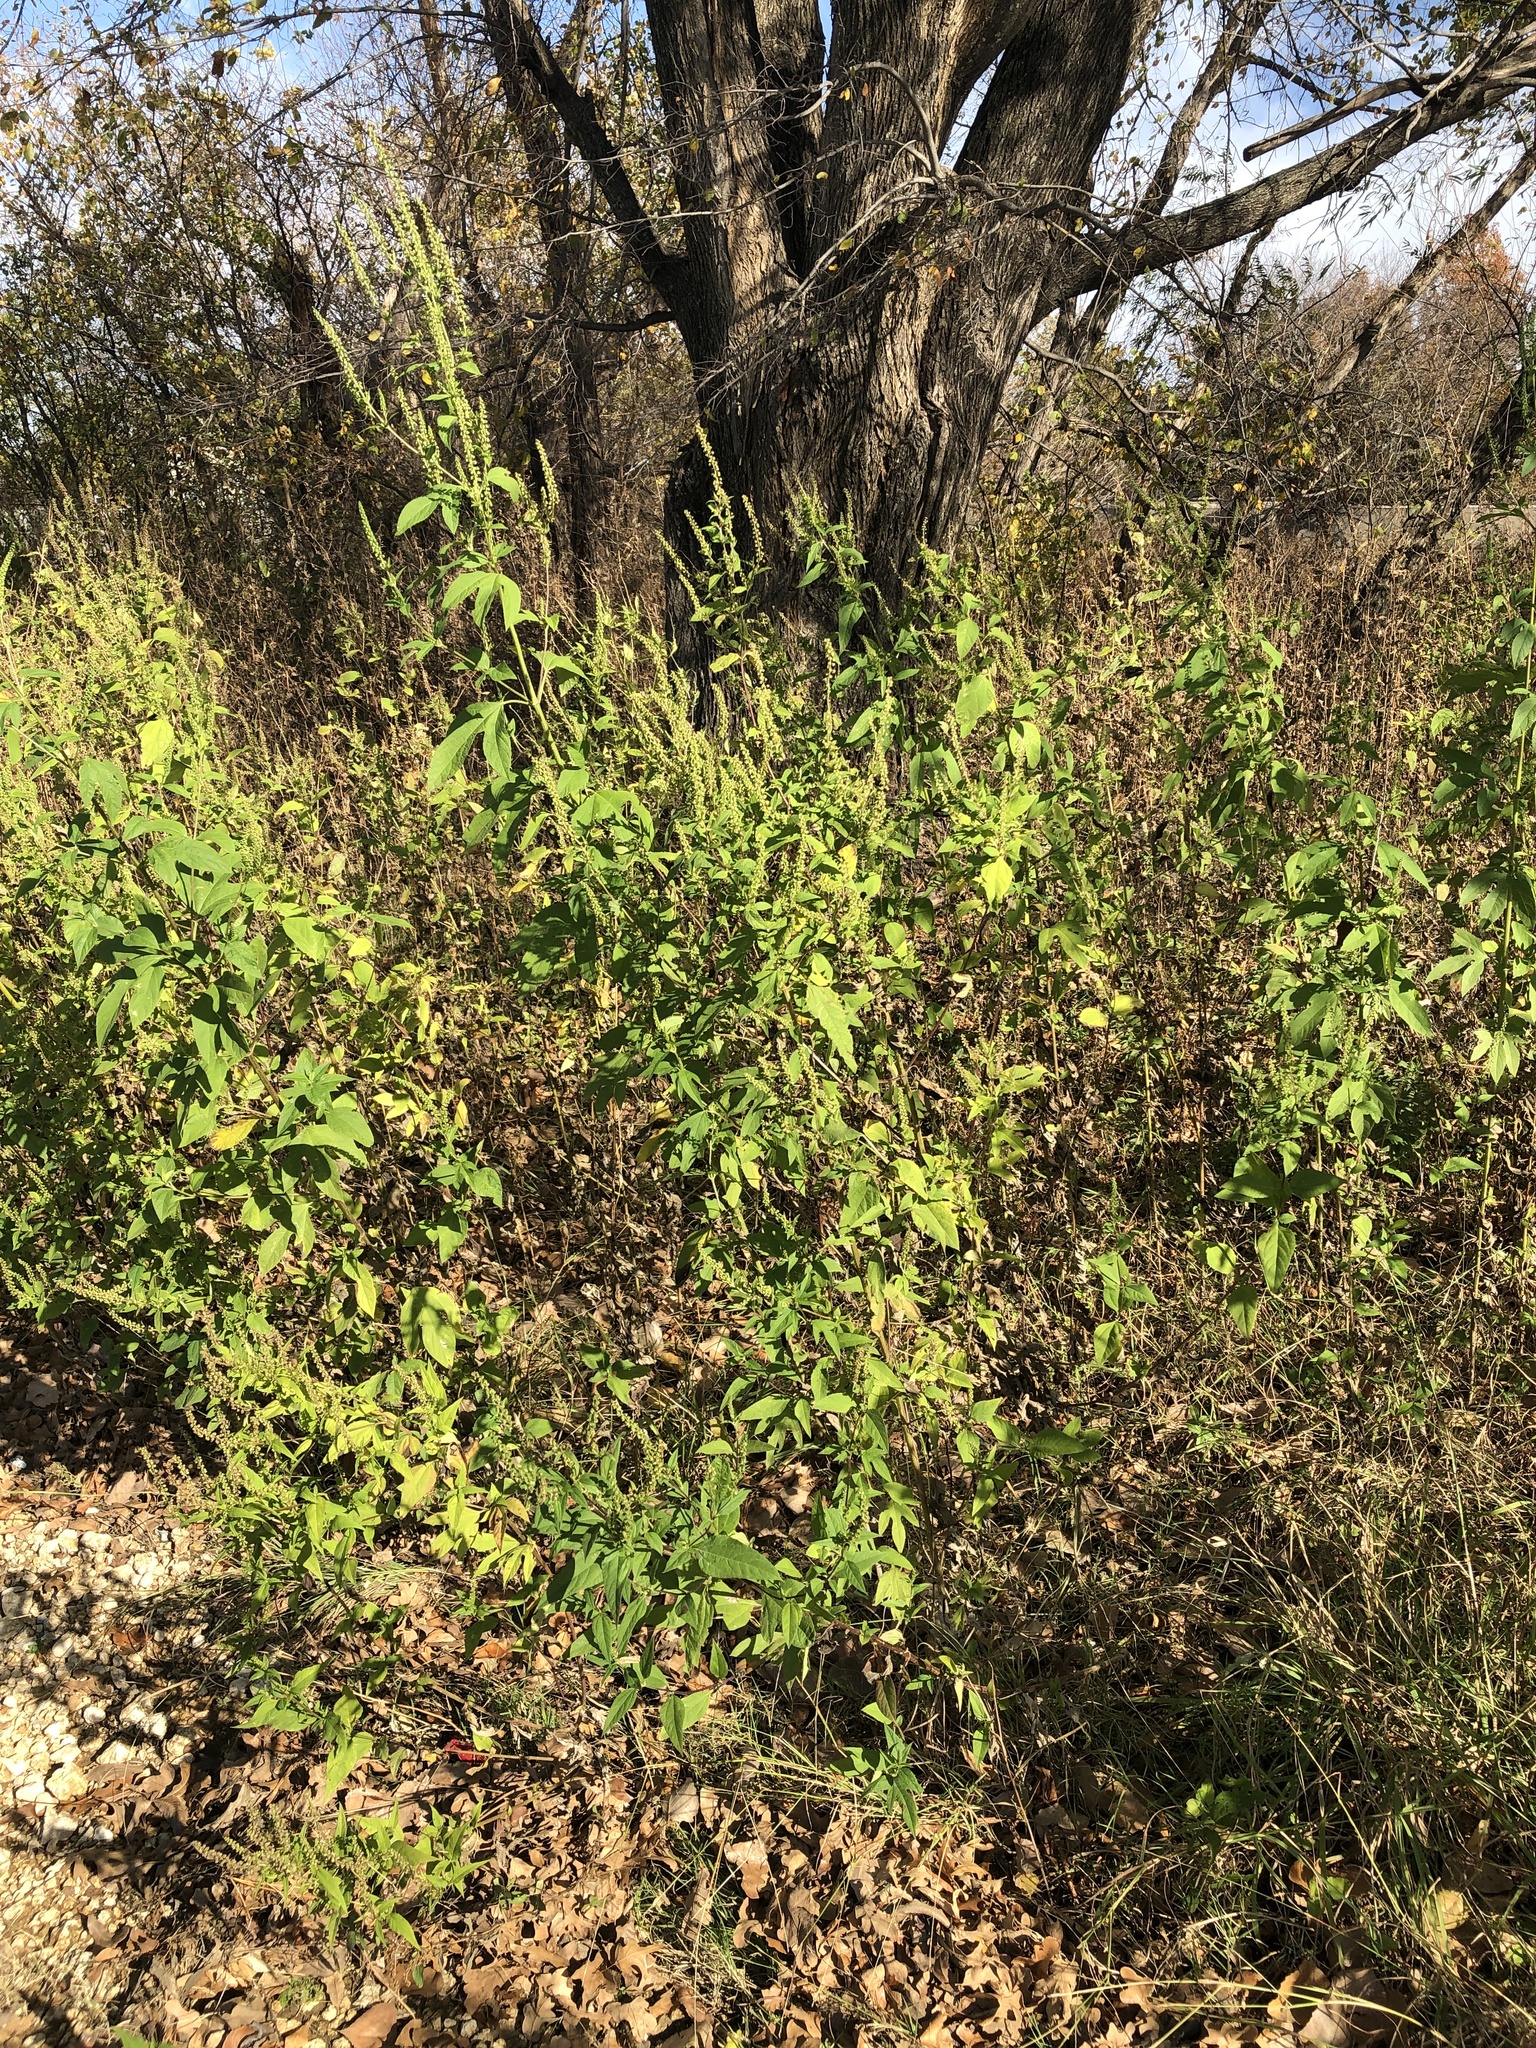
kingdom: Plantae
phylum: Tracheophyta
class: Magnoliopsida
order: Asterales
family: Asteraceae
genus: Ambrosia
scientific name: Ambrosia trifida
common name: Giant ragweed
